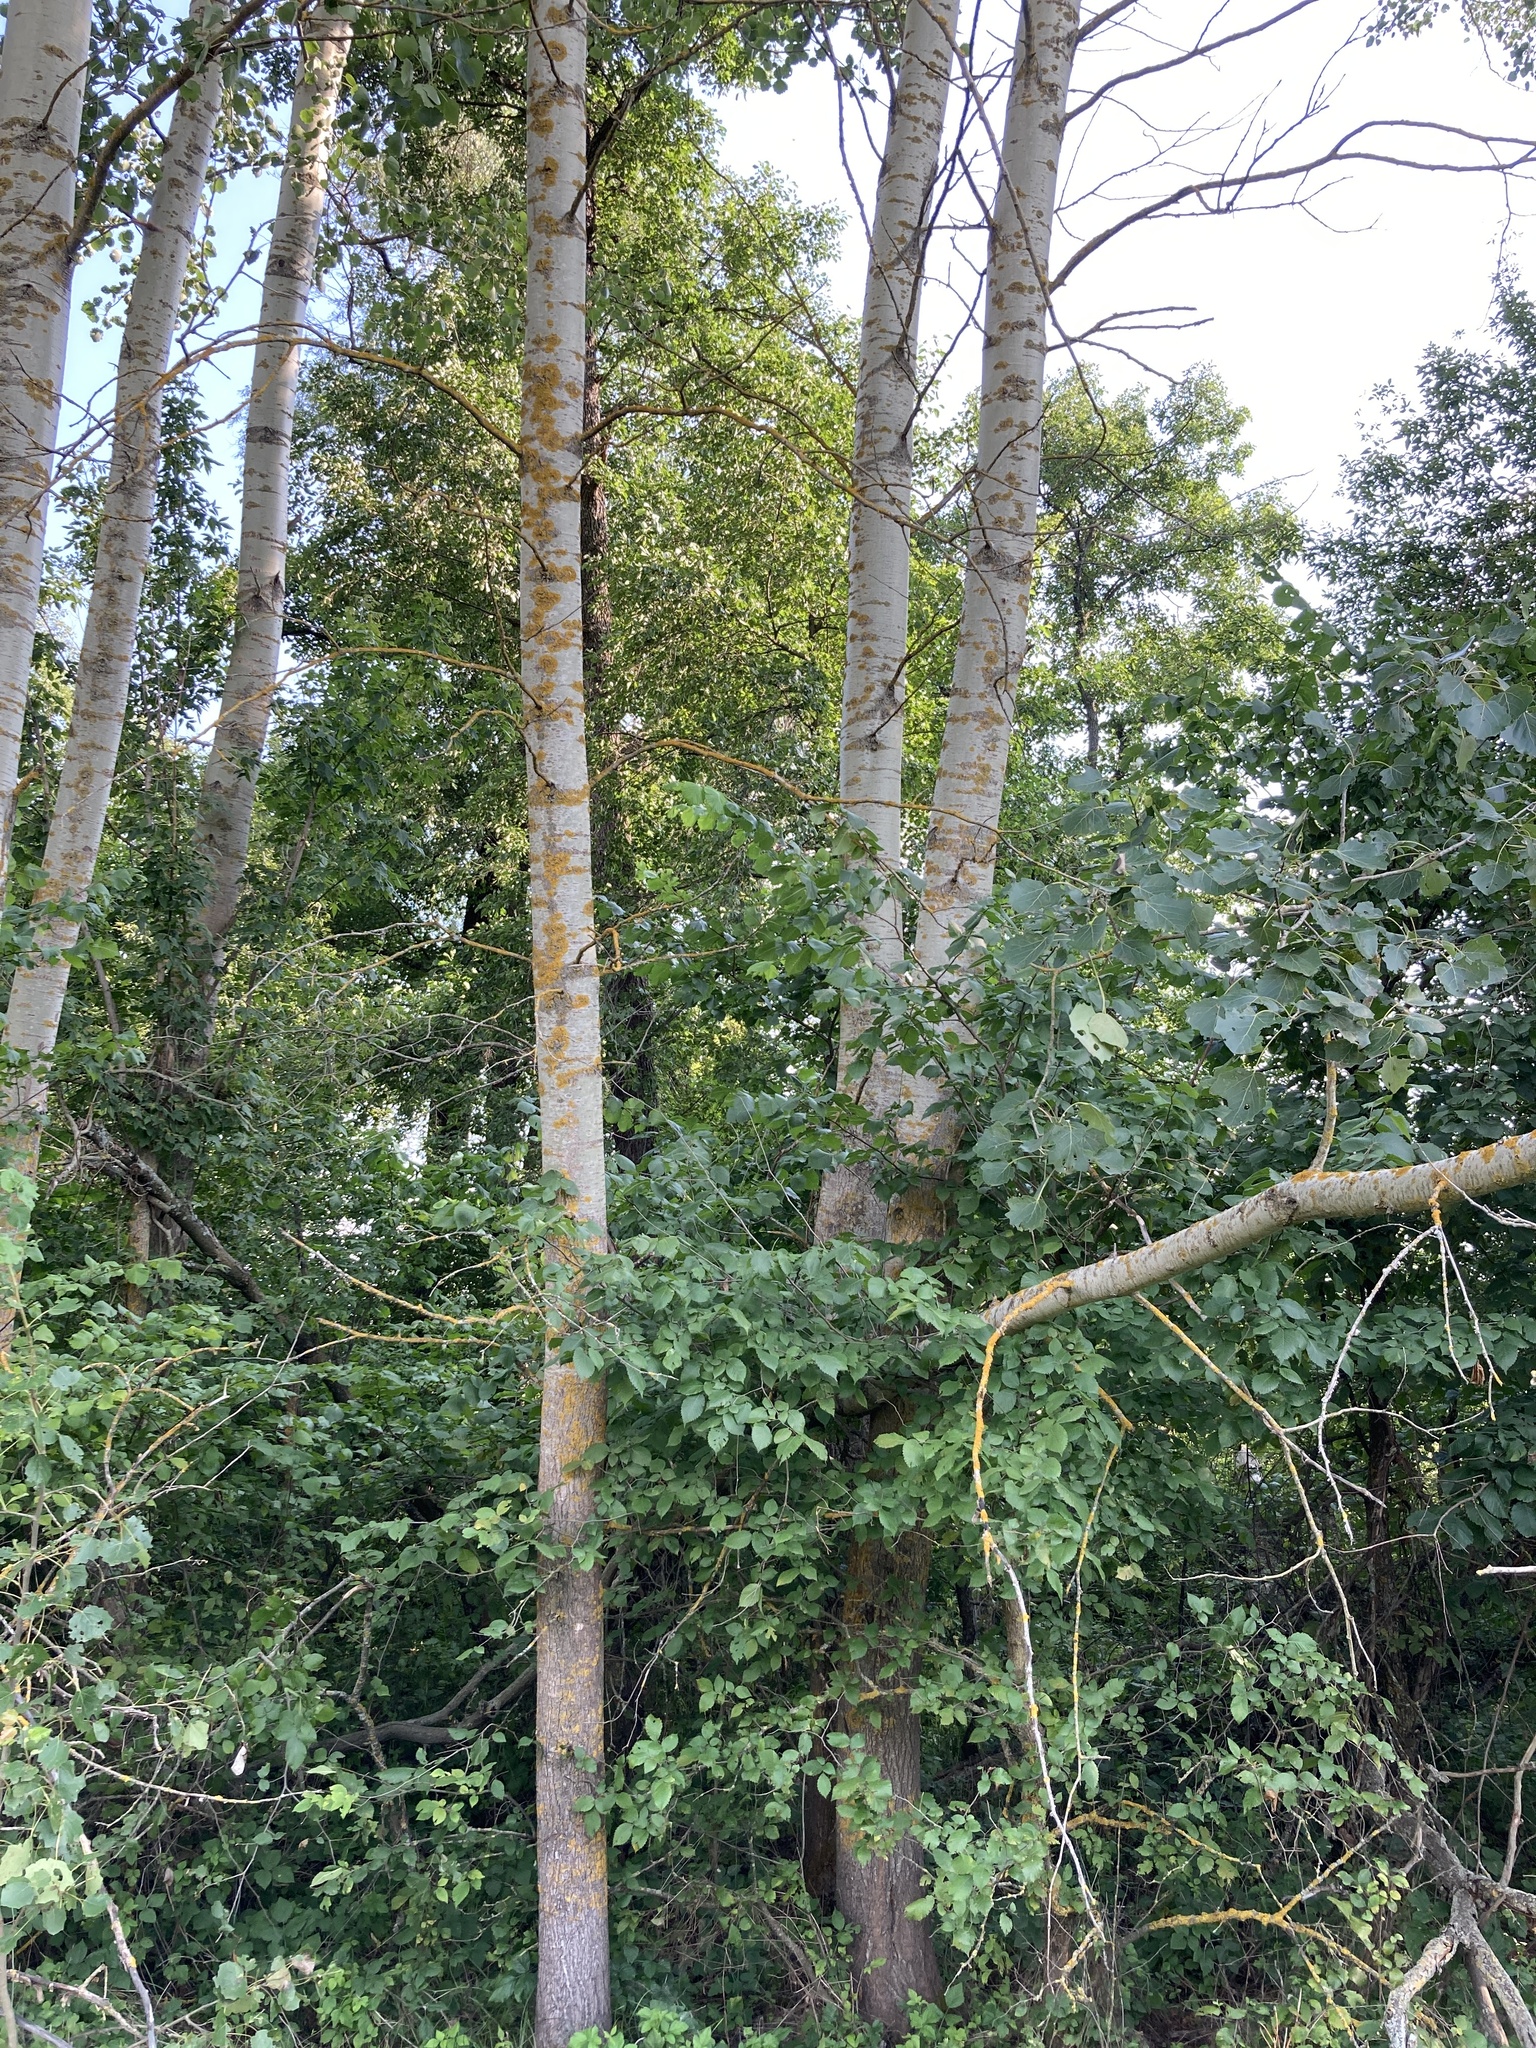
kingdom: Plantae
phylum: Tracheophyta
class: Magnoliopsida
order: Malpighiales
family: Salicaceae
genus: Populus
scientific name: Populus tremula
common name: European aspen
